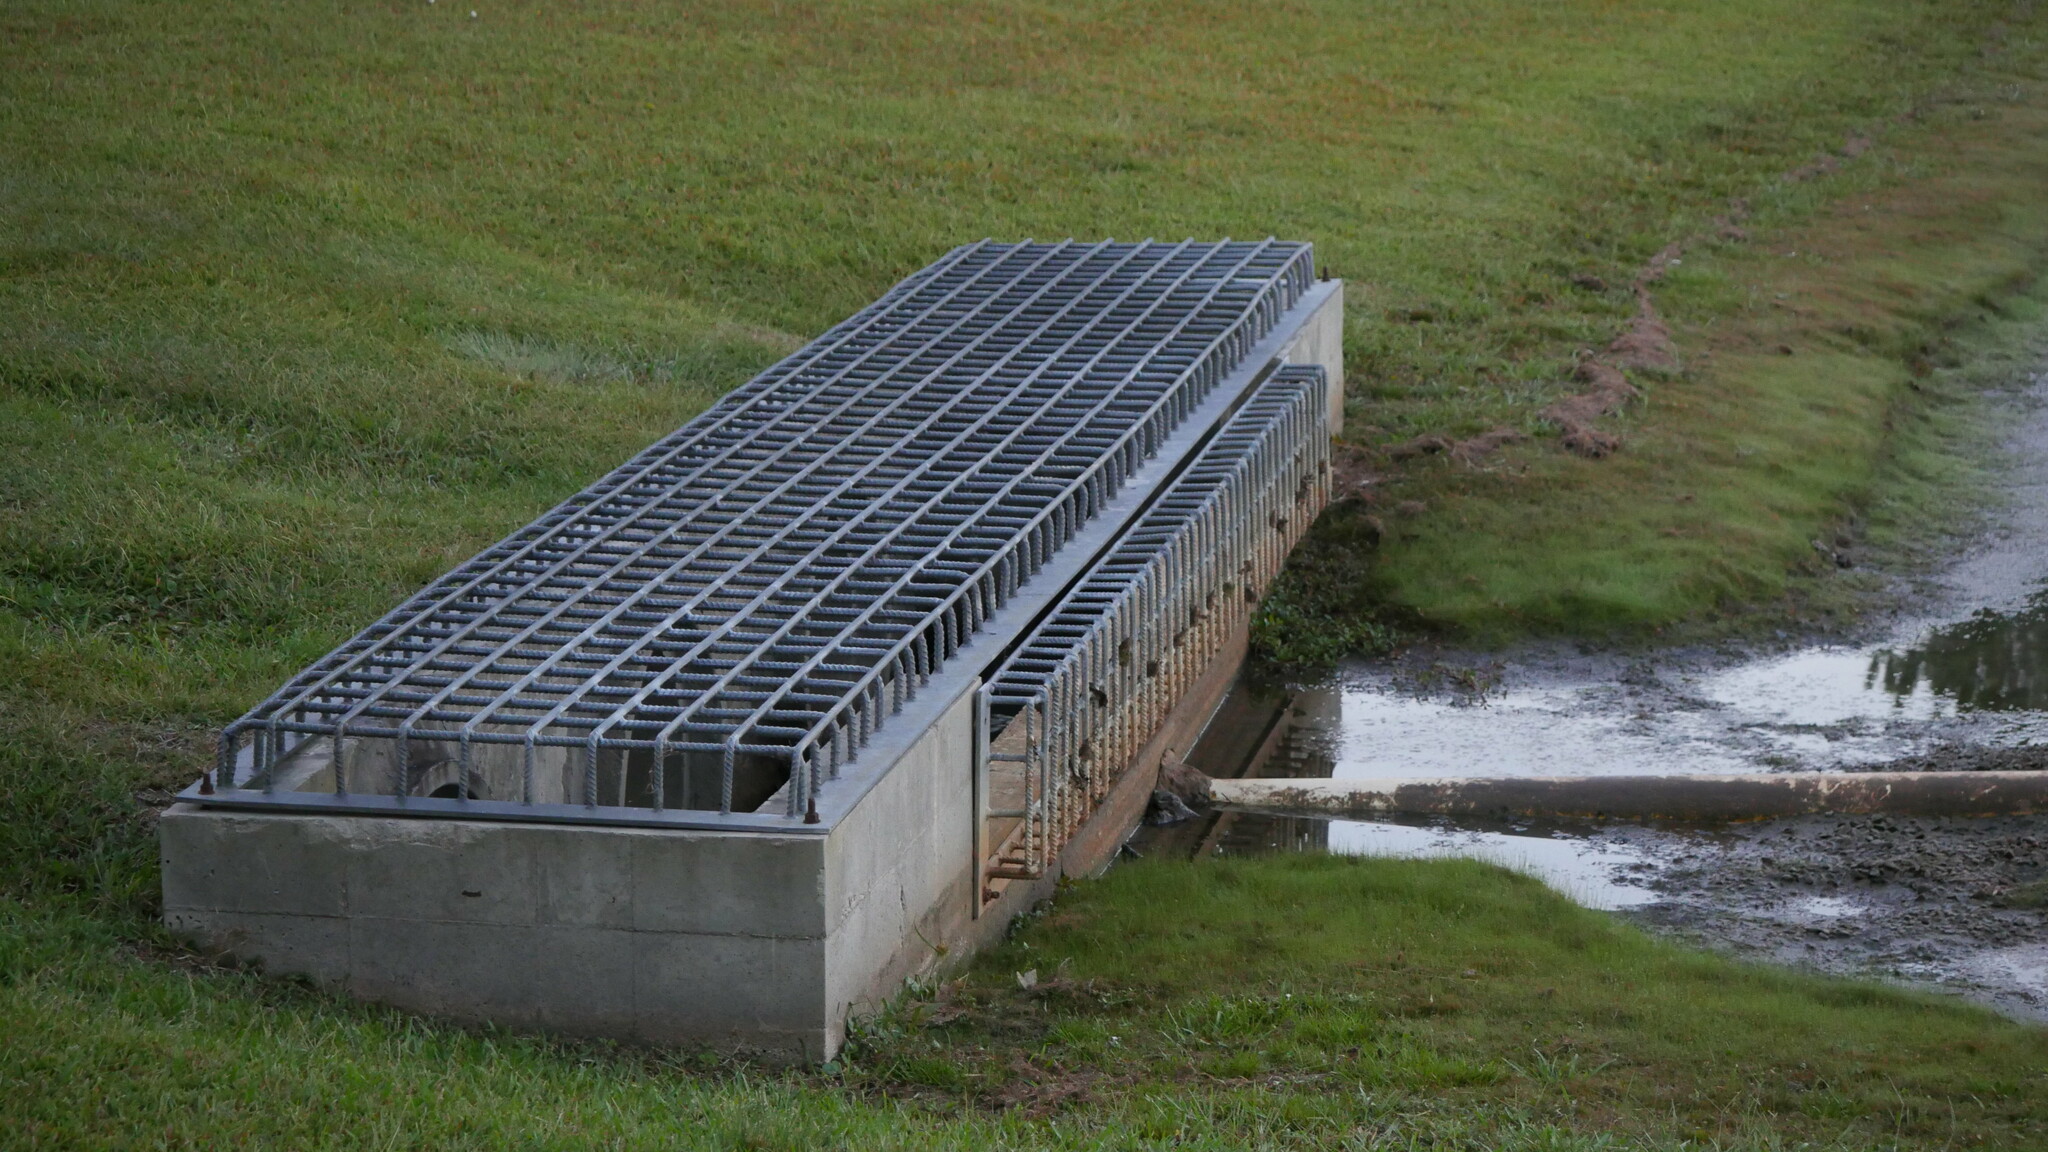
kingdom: Animalia
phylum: Chordata
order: Perciformes
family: Centrarchidae
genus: Lepomis
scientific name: Lepomis
